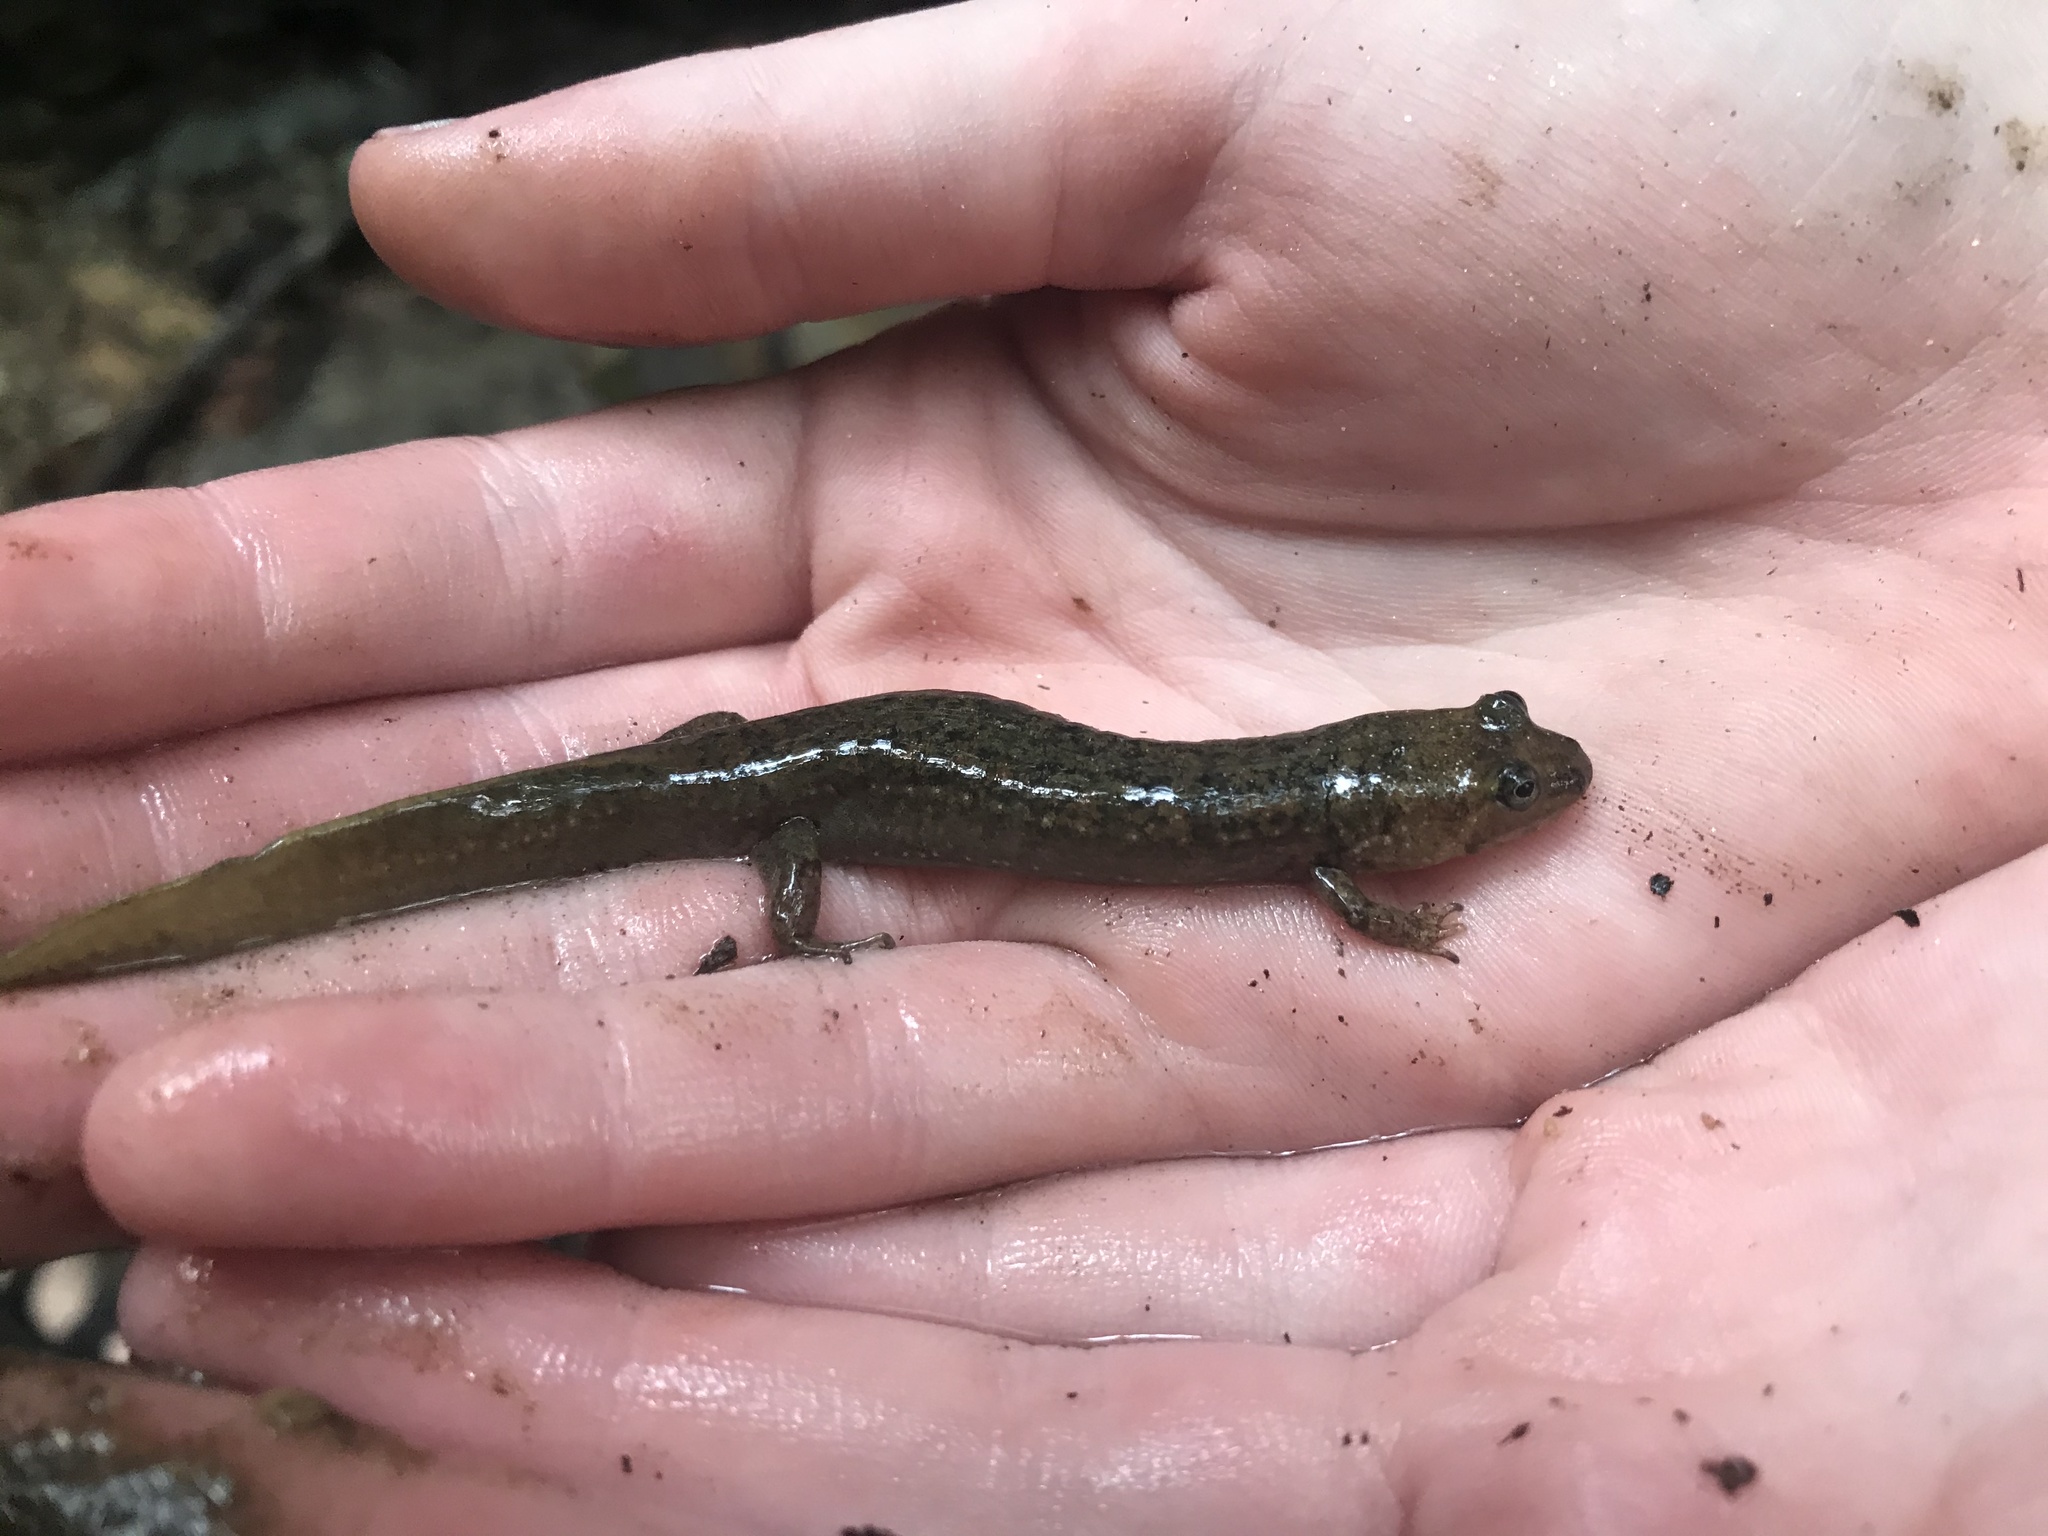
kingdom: Animalia
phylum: Chordata
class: Amphibia
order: Caudata
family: Plethodontidae
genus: Desmognathus
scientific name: Desmognathus
